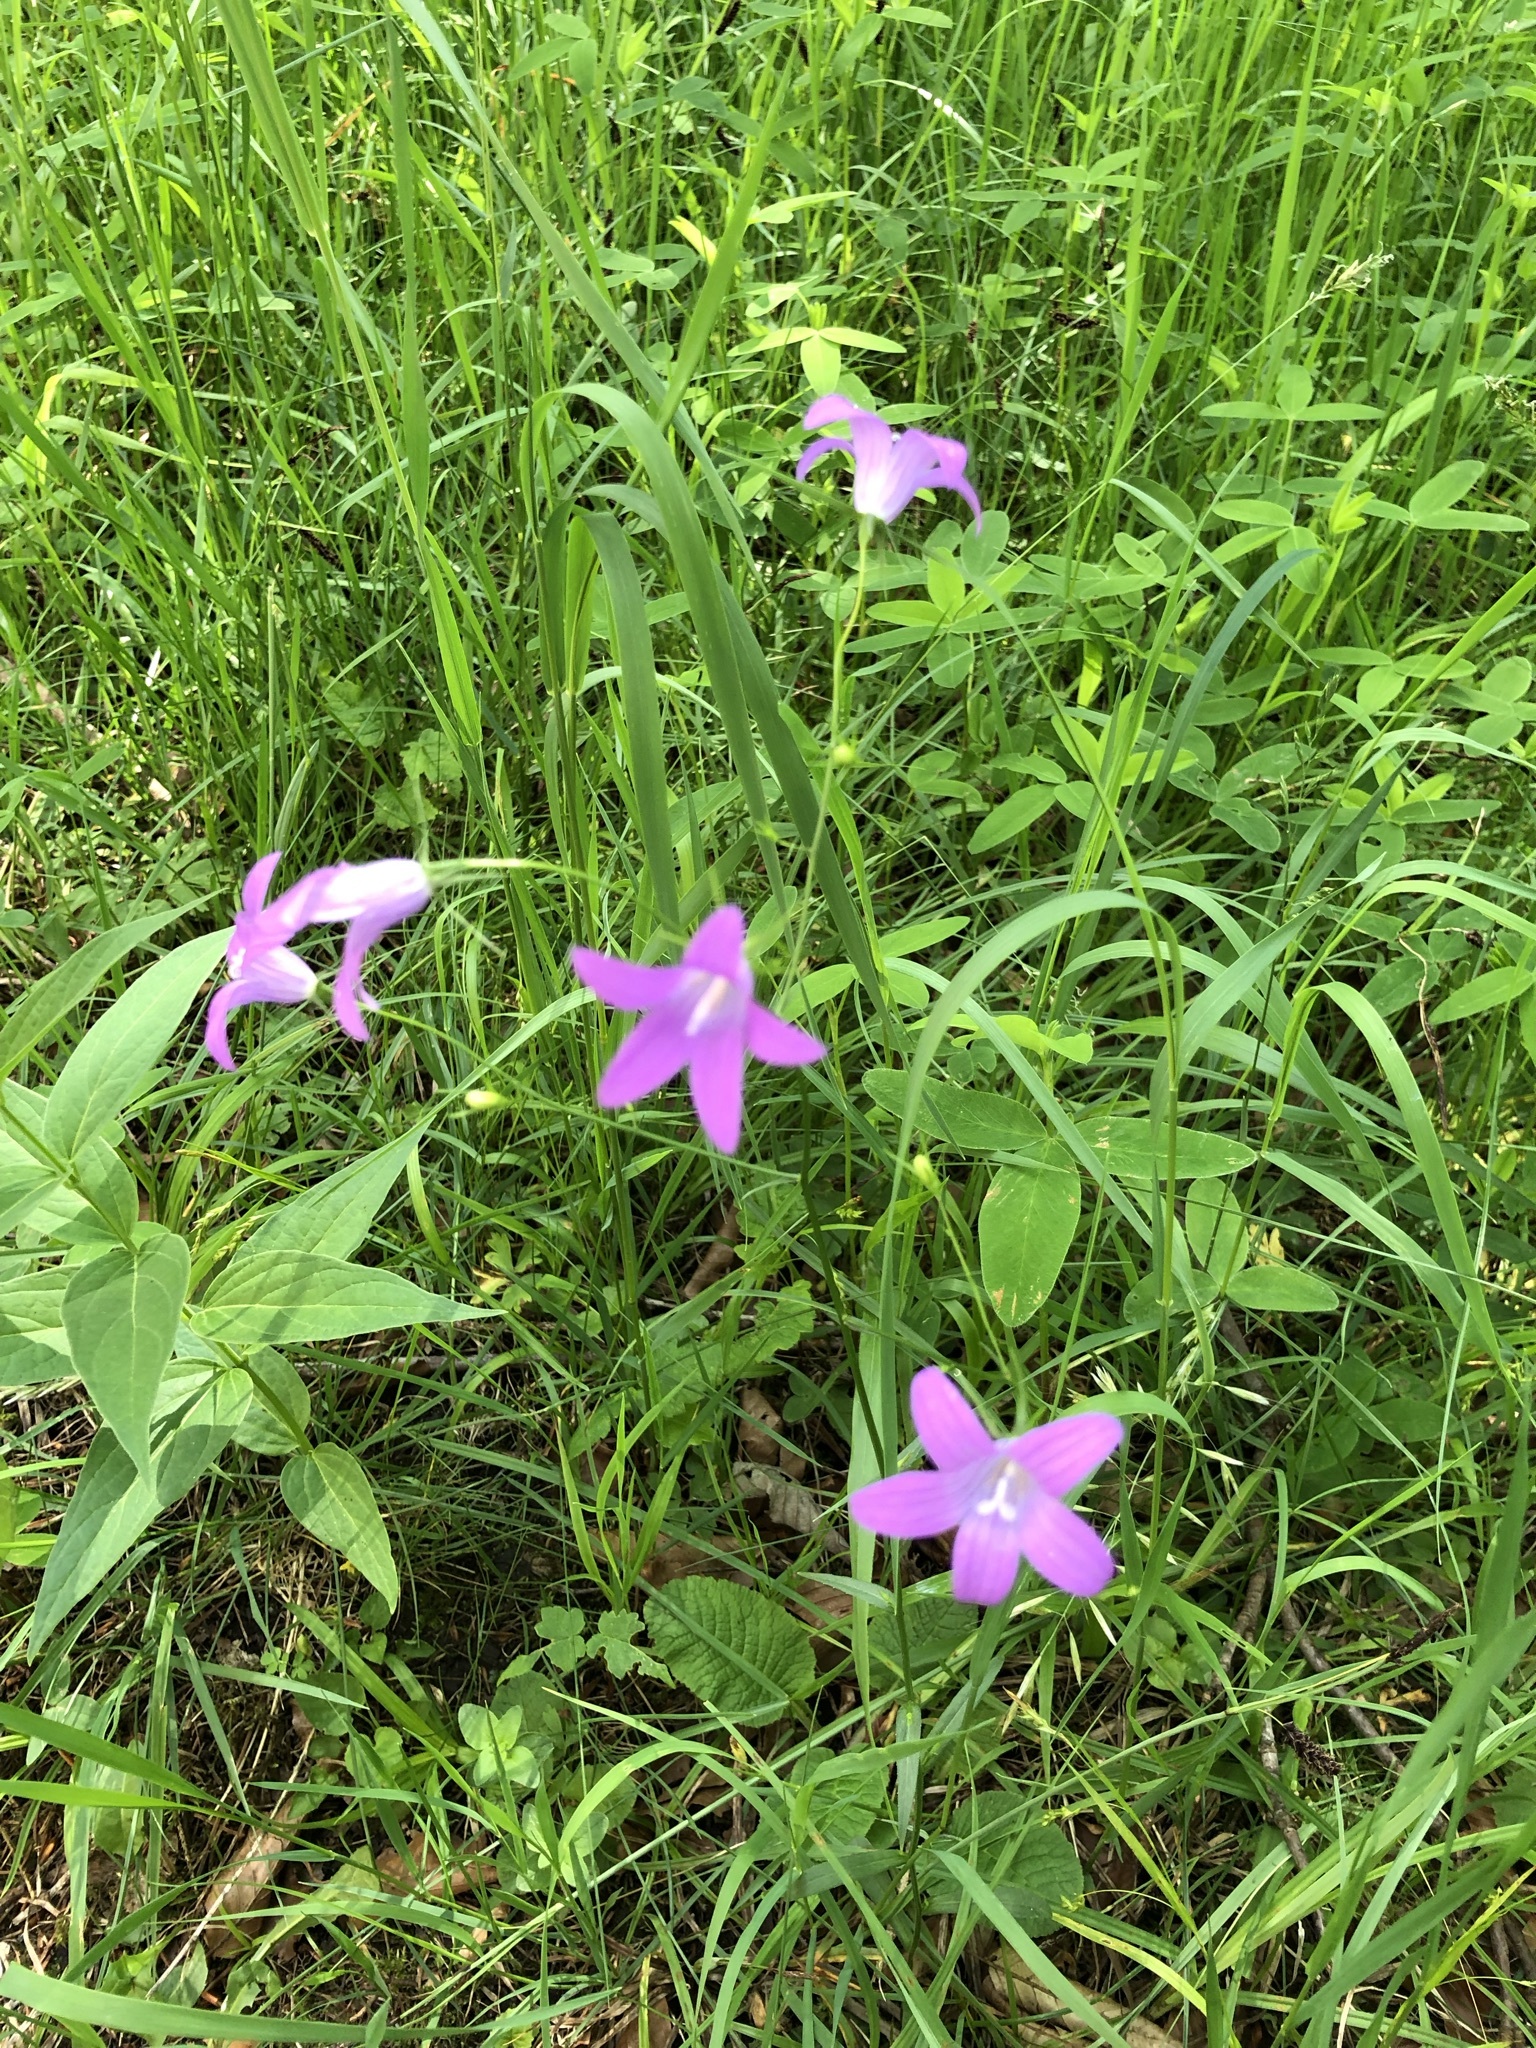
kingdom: Plantae
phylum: Tracheophyta
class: Magnoliopsida
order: Asterales
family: Campanulaceae
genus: Campanula
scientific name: Campanula patula
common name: Spreading bellflower
